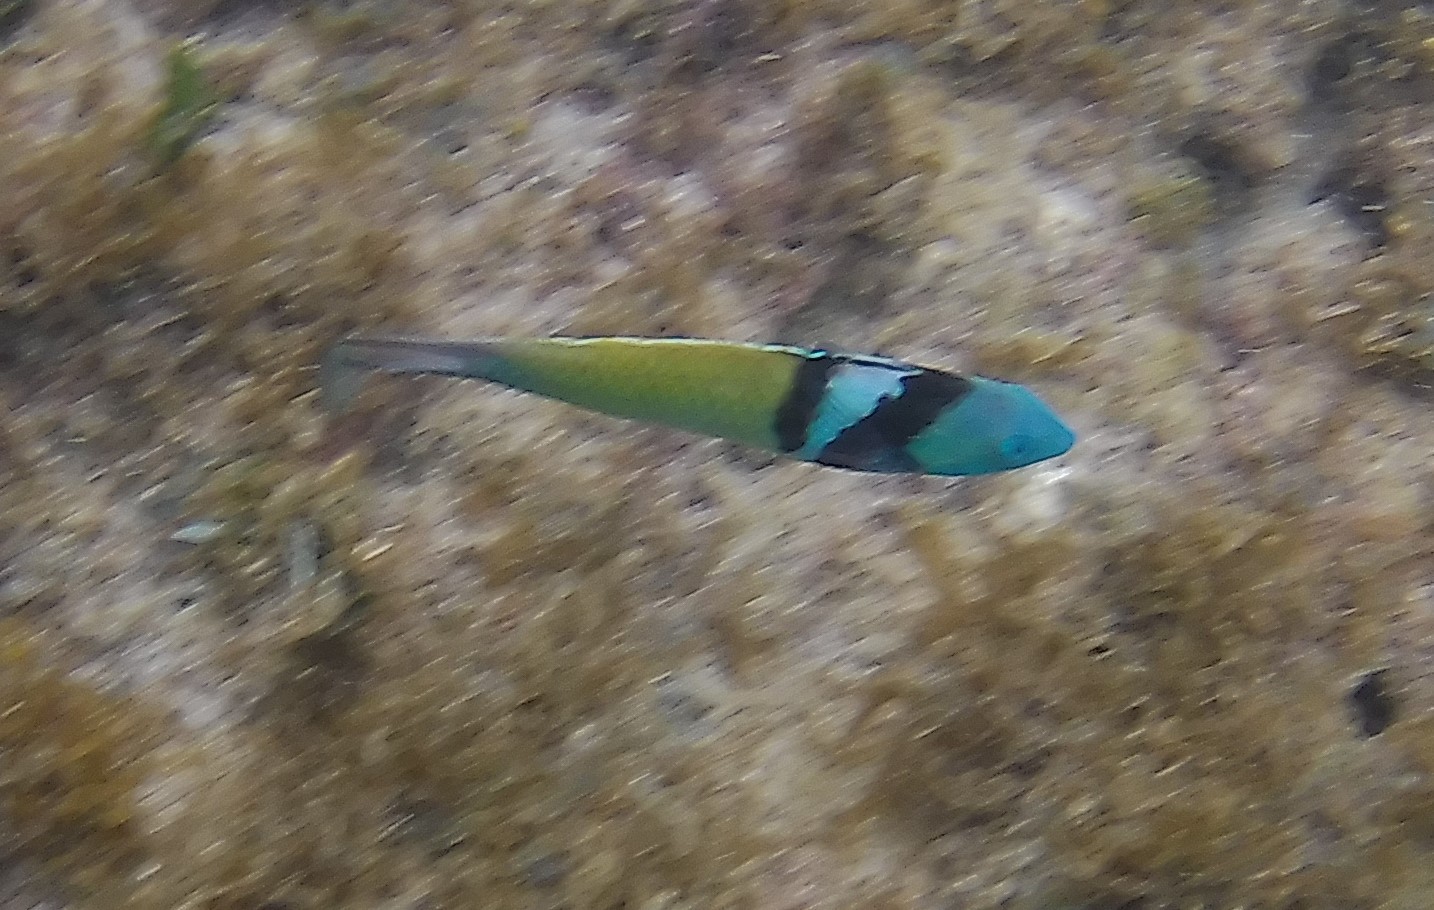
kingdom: Animalia
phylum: Chordata
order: Perciformes
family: Labridae
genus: Thalassoma
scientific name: Thalassoma bifasciatum
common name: Bluehead wrasse
